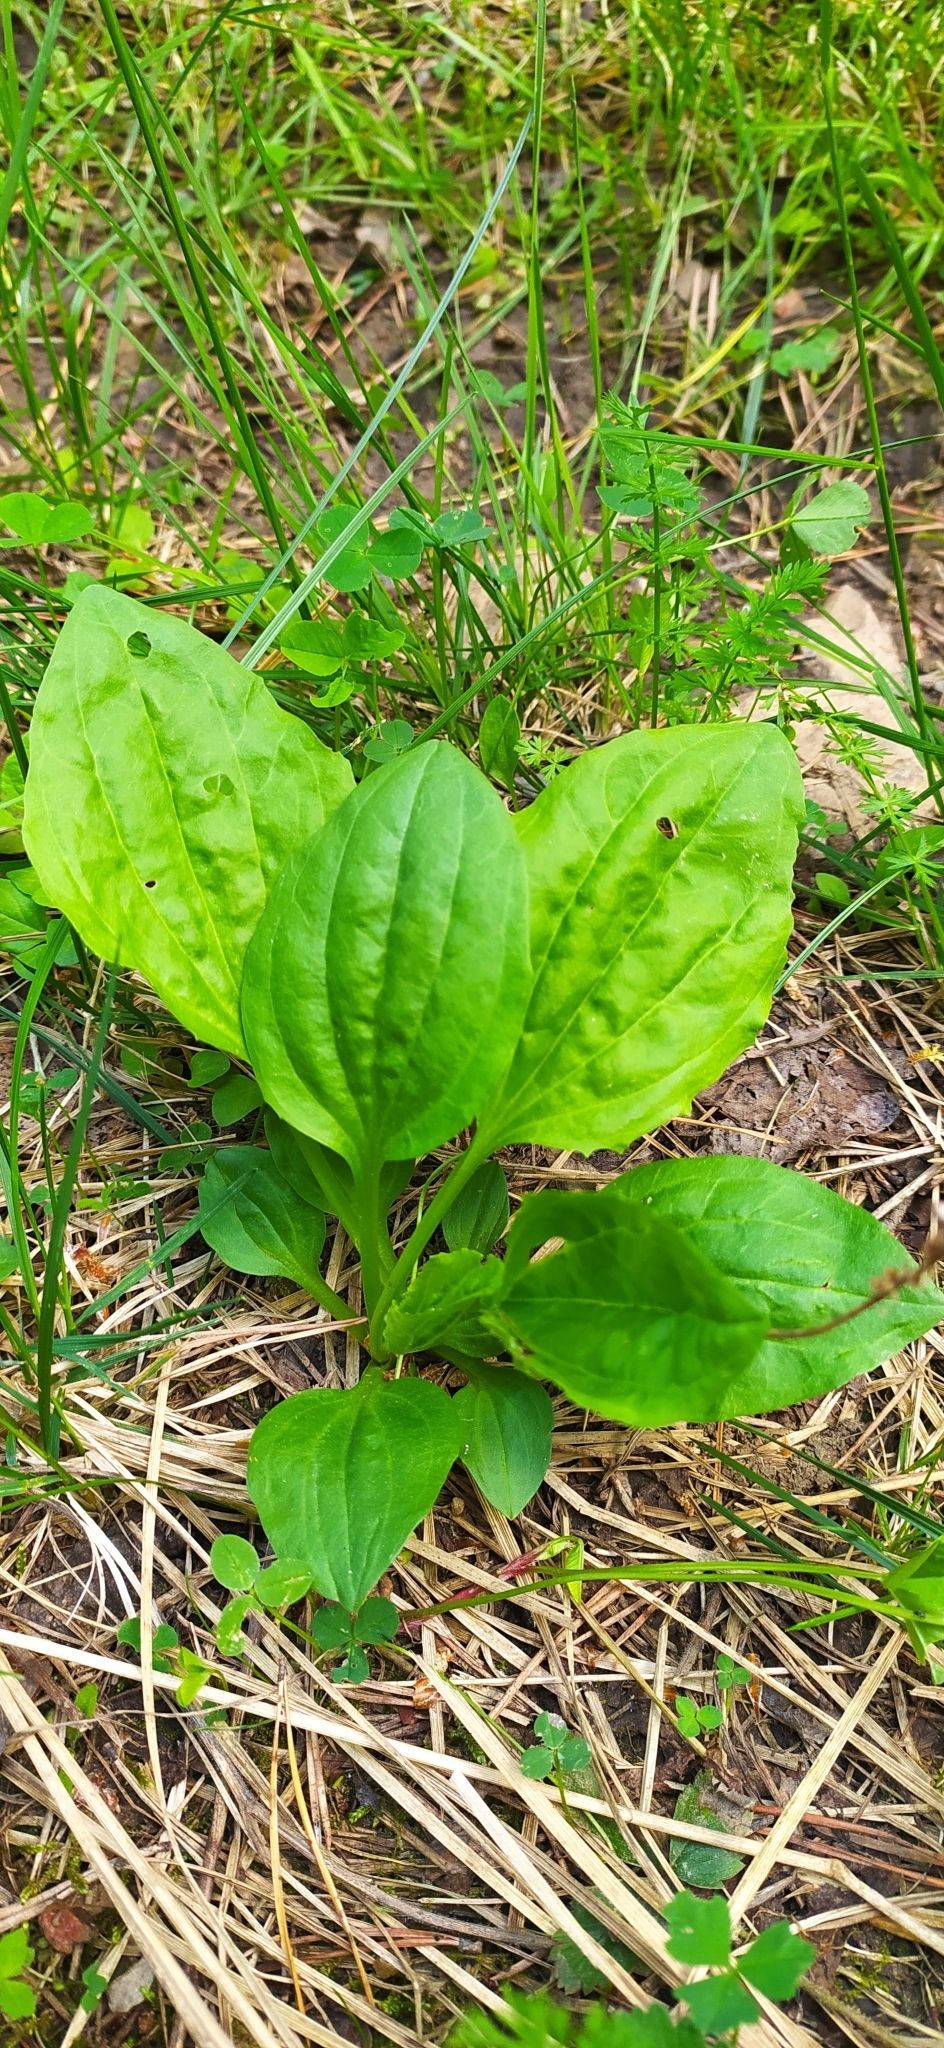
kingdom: Plantae
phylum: Tracheophyta
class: Magnoliopsida
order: Lamiales
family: Plantaginaceae
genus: Plantago
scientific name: Plantago major
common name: Common plantain
